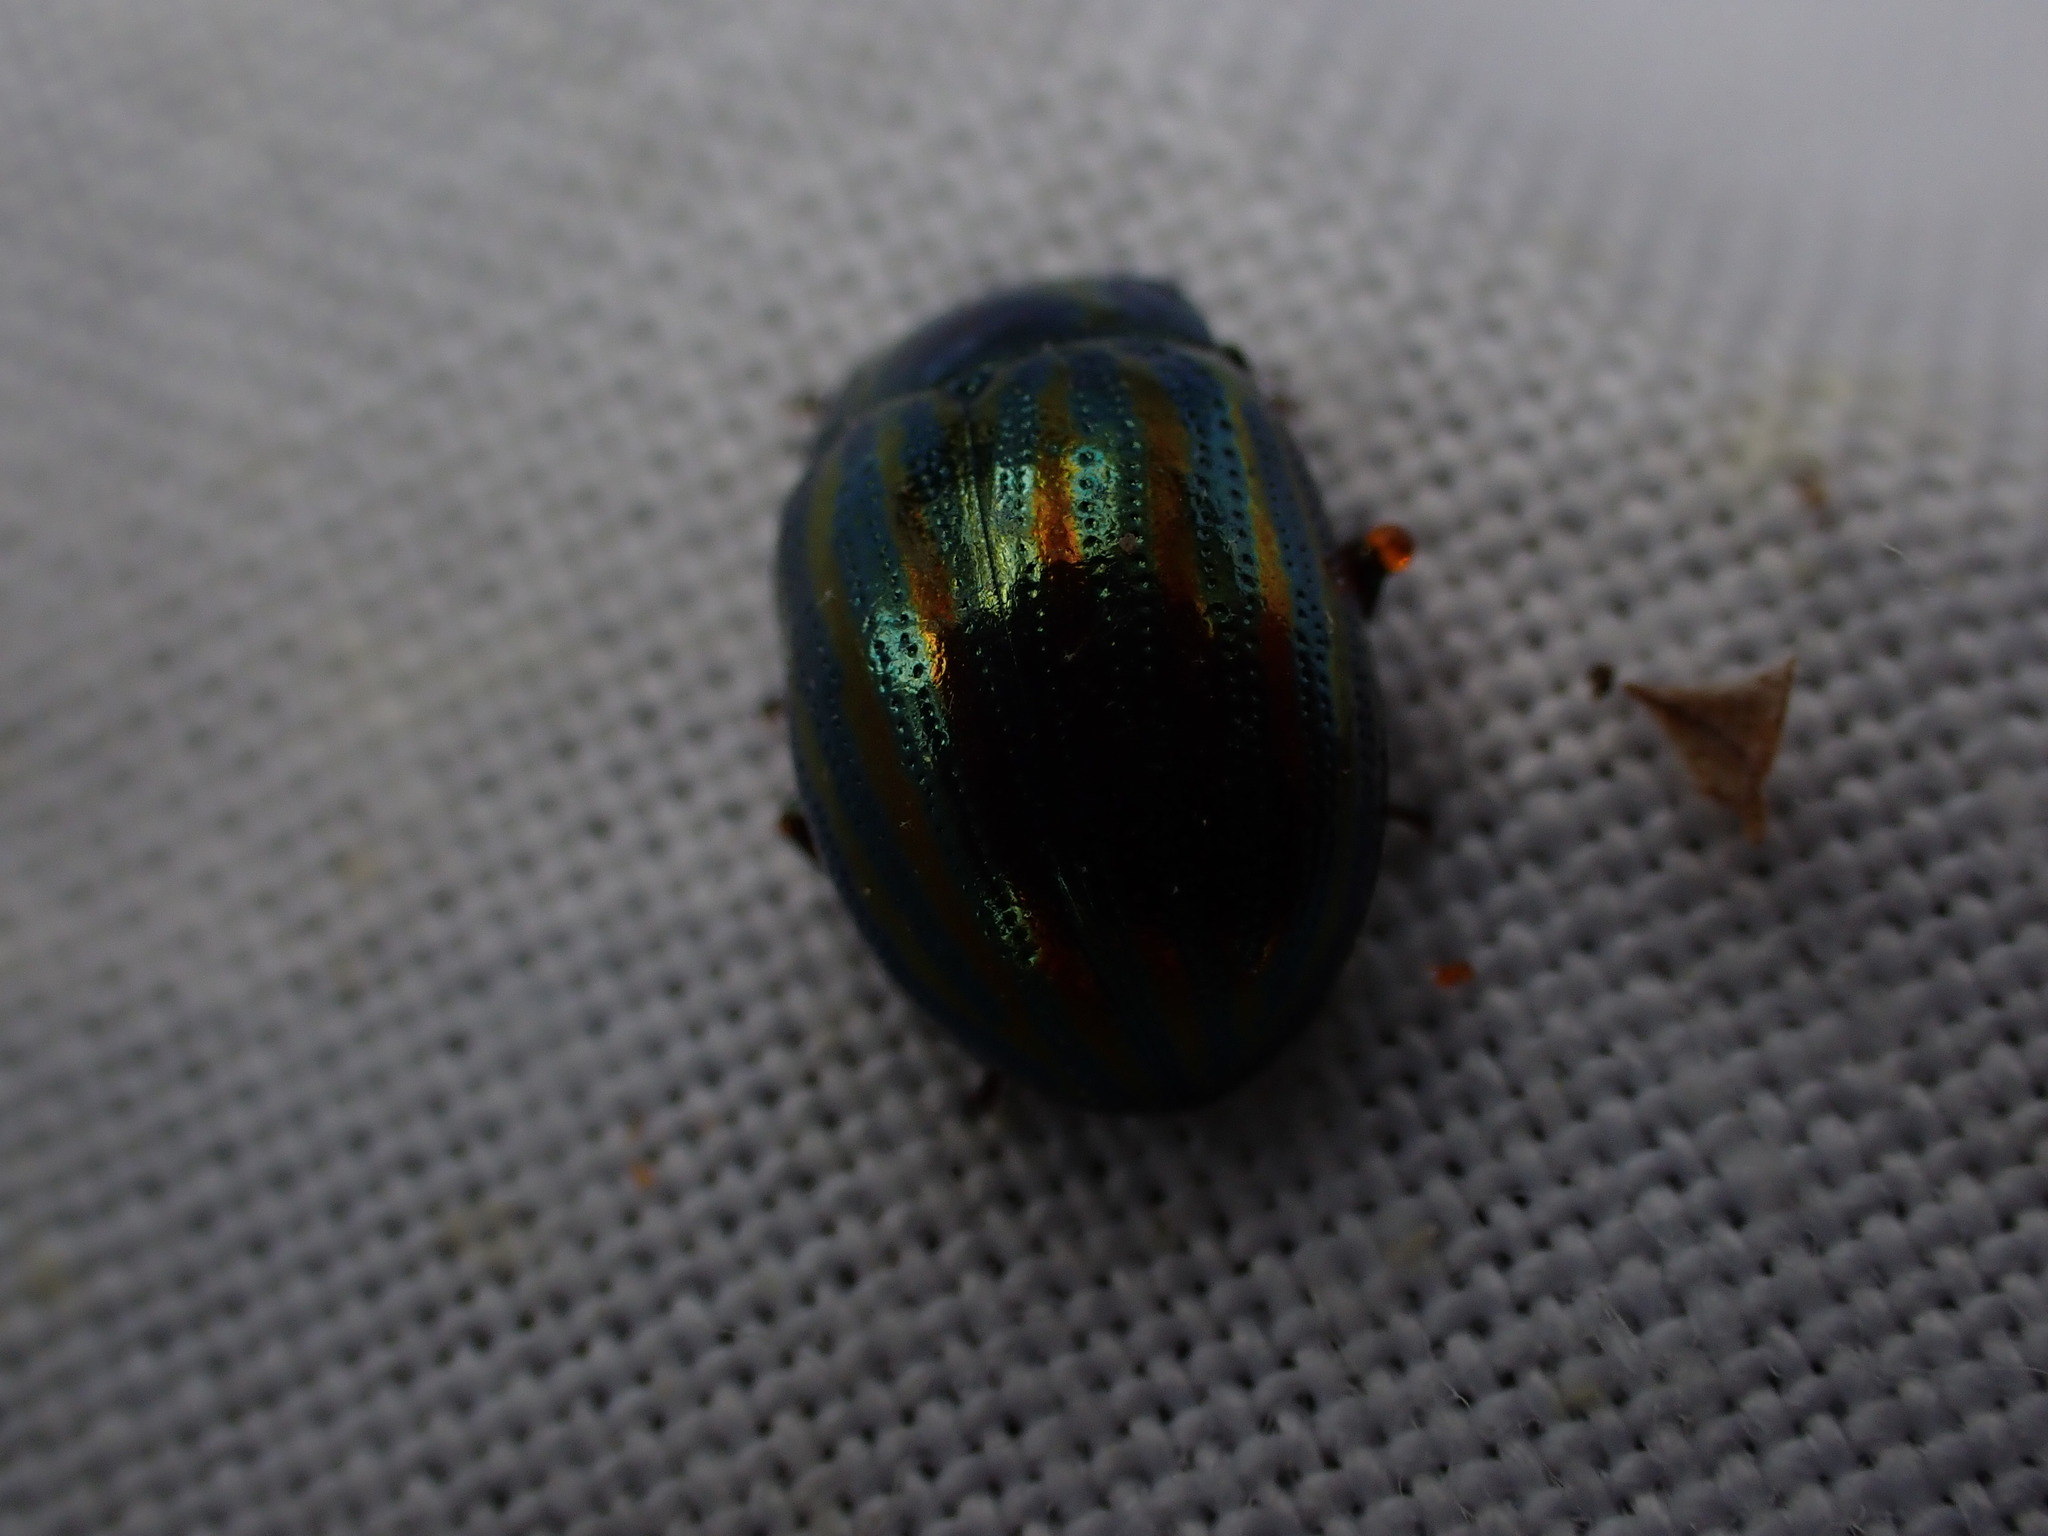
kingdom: Animalia
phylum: Arthropoda
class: Insecta
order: Coleoptera
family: Chrysomelidae
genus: Chrysolina
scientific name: Chrysolina americana
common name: Rosemary beetle
